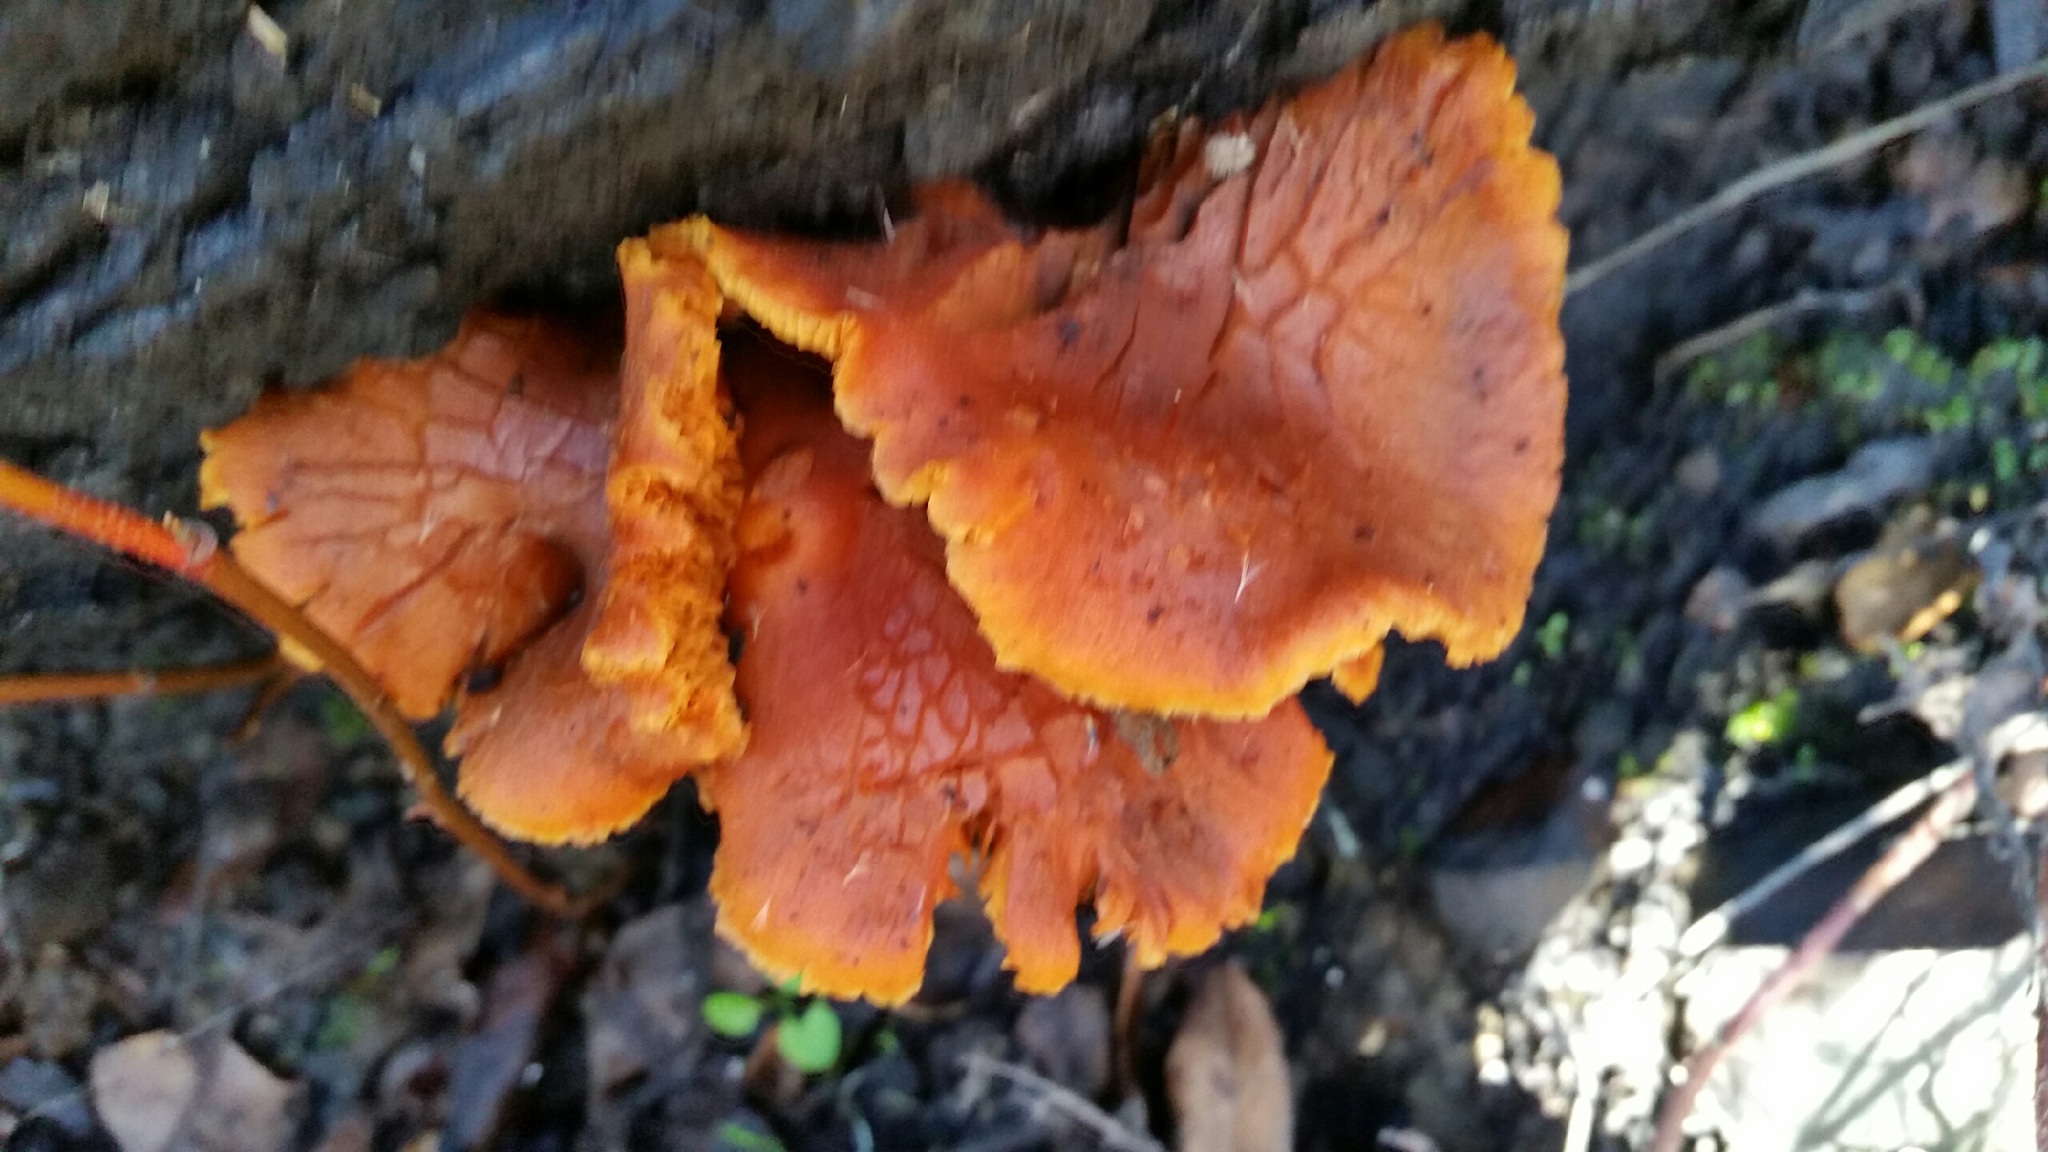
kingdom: Fungi
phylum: Basidiomycota
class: Agaricomycetes
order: Agaricales
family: Hymenogastraceae
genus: Gymnopilus
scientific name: Gymnopilus aurantiophyllus
